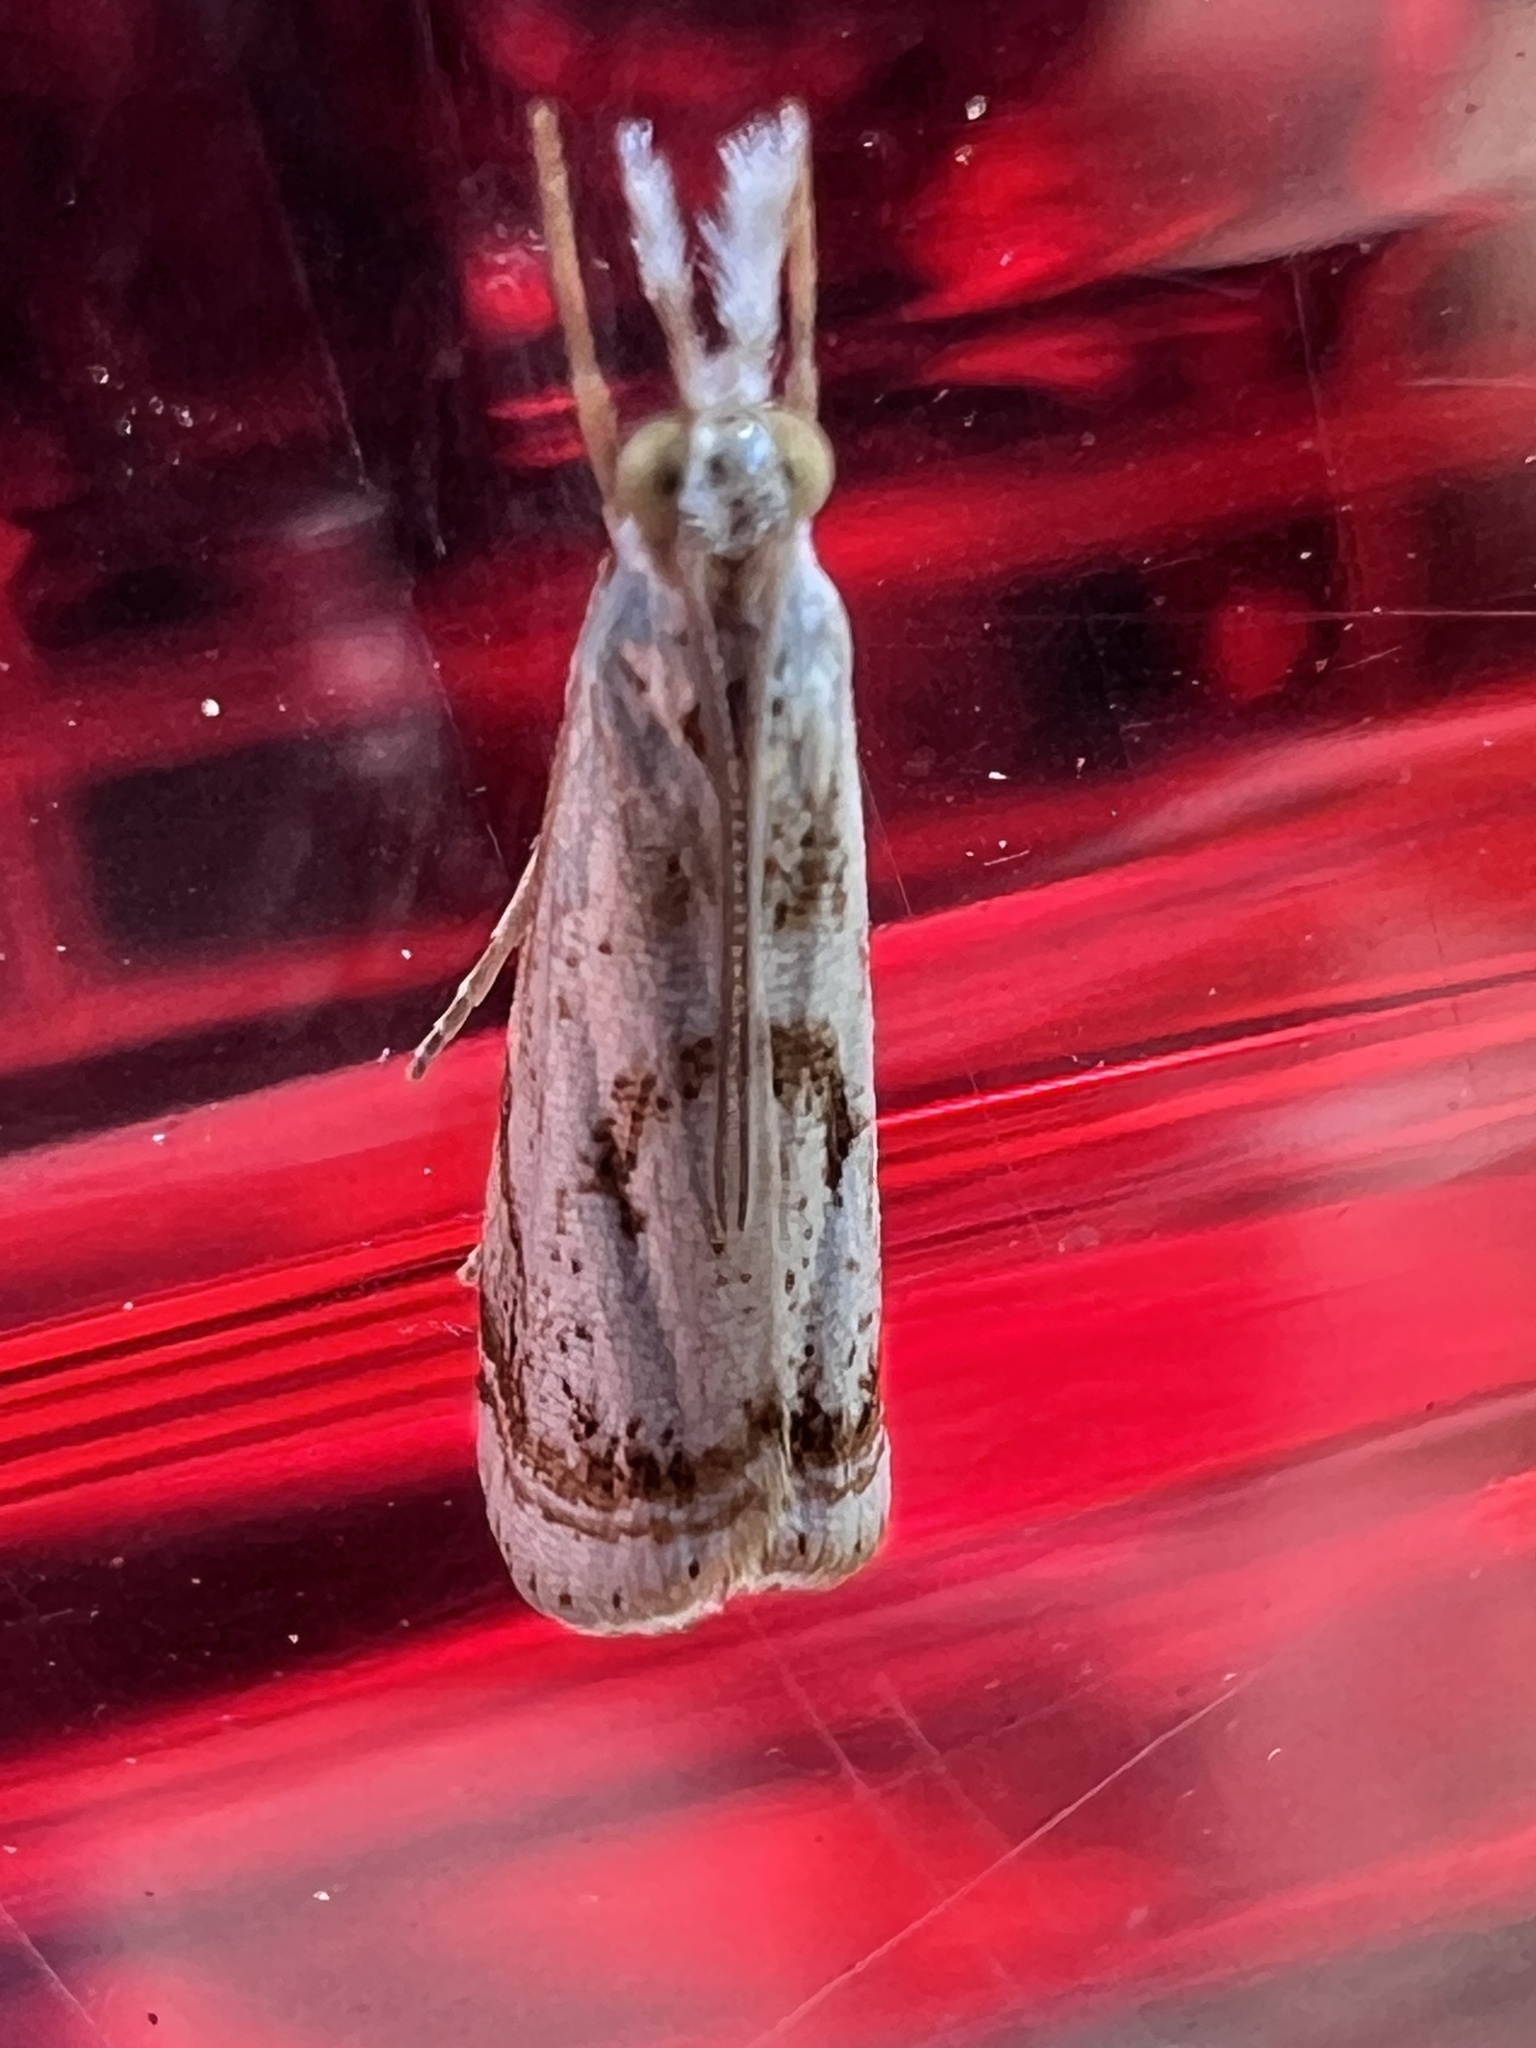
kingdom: Animalia
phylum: Arthropoda
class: Insecta
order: Lepidoptera
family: Crambidae
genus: Microcrambus
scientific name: Microcrambus elegans
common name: Elegant grass-veneer
